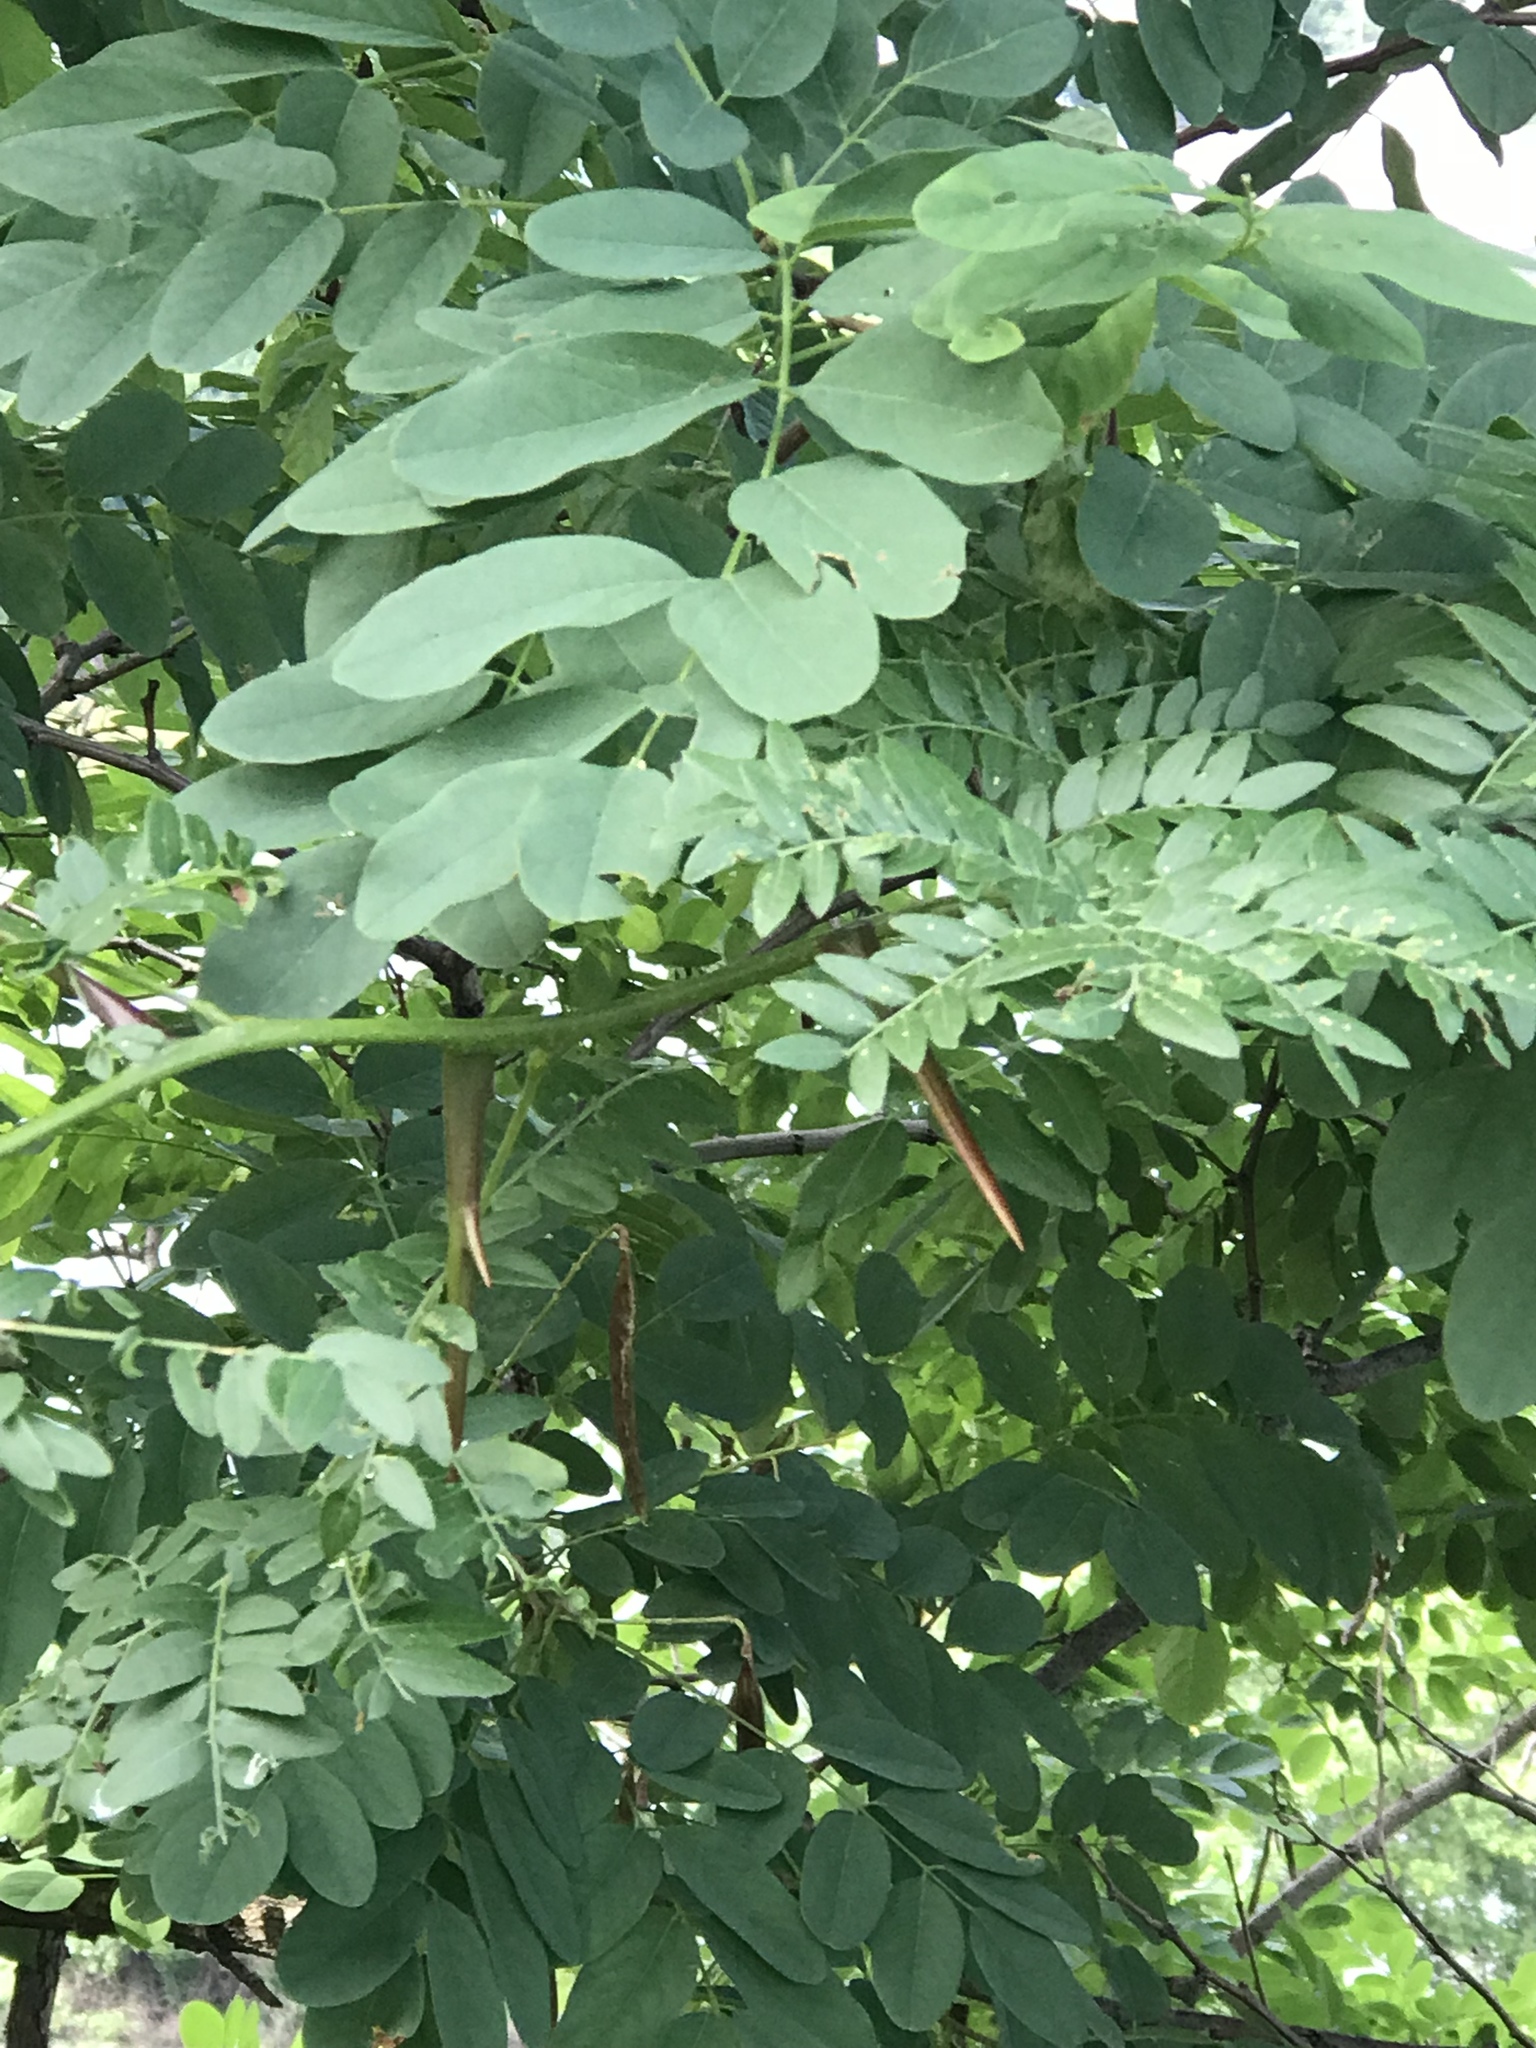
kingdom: Plantae
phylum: Tracheophyta
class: Magnoliopsida
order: Fabales
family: Fabaceae
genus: Gleditsia
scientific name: Gleditsia triacanthos
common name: Common honeylocust
